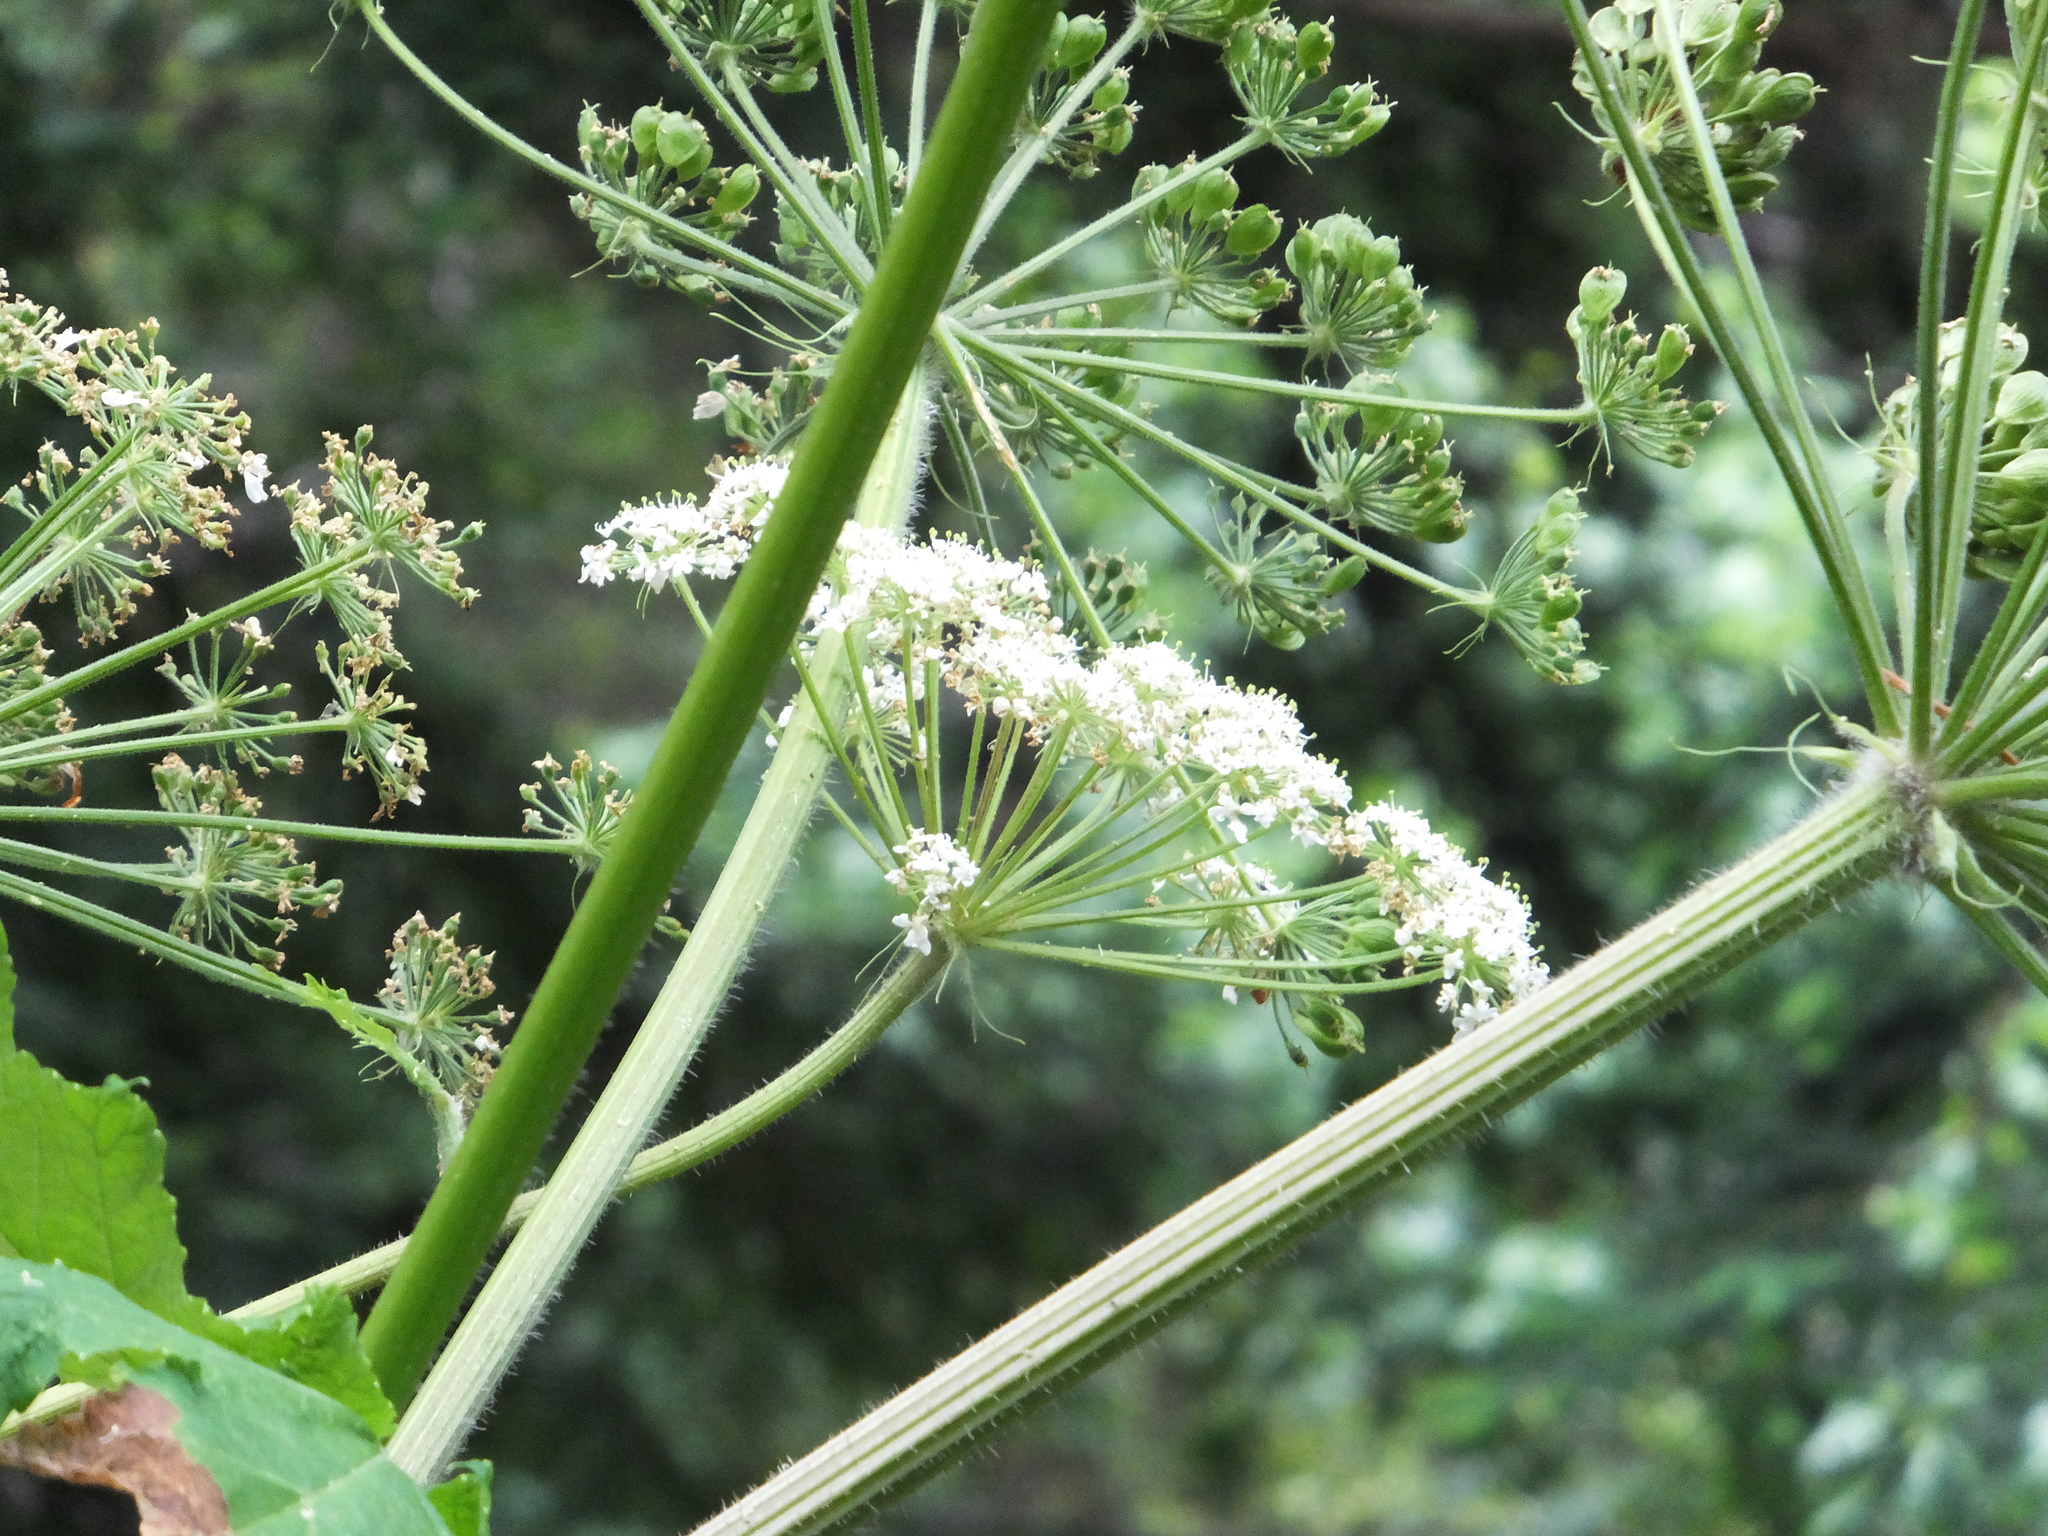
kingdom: Plantae
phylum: Tracheophyta
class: Magnoliopsida
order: Apiales
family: Apiaceae
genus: Heracleum
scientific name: Heracleum maximum
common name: American cow parsnip
